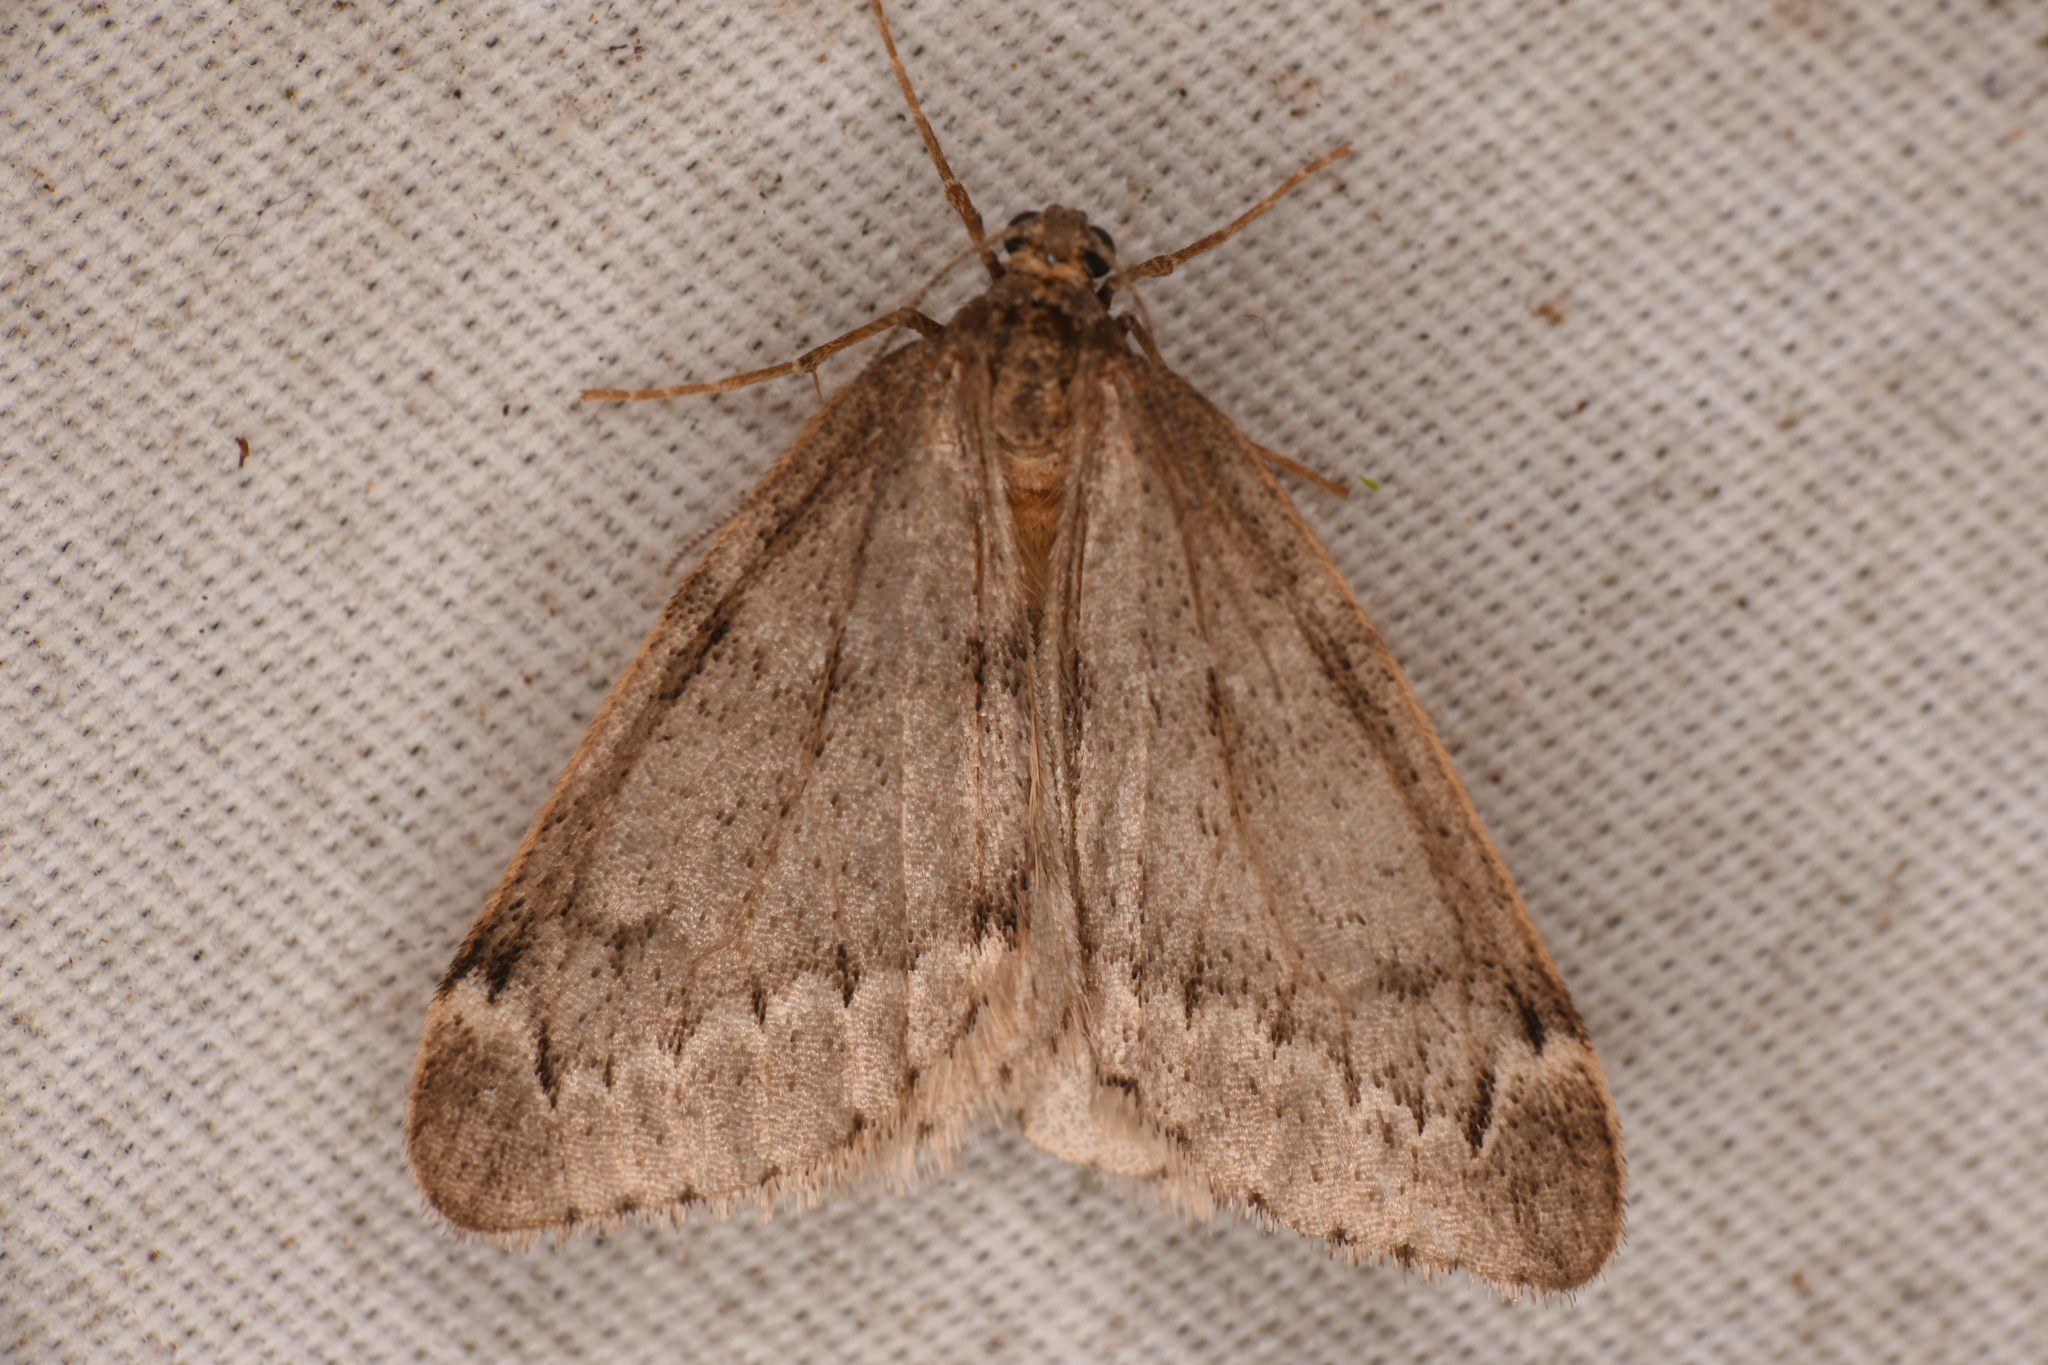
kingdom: Animalia
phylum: Arthropoda
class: Insecta
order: Lepidoptera
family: Geometridae
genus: Alsophila
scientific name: Alsophila pometaria
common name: Fall cankerworm
